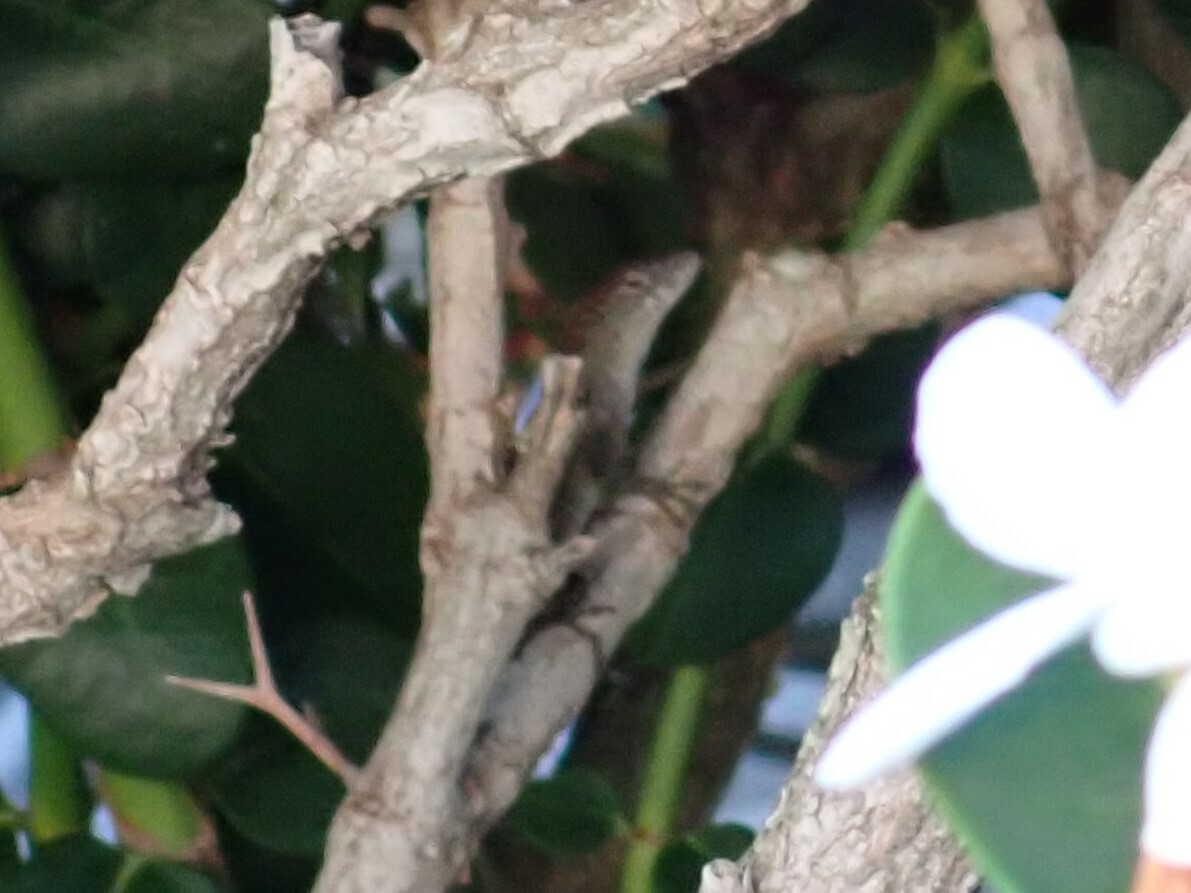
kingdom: Animalia
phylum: Chordata
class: Squamata
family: Dactyloidae
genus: Anolis
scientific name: Anolis sagrei
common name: Brown anole
